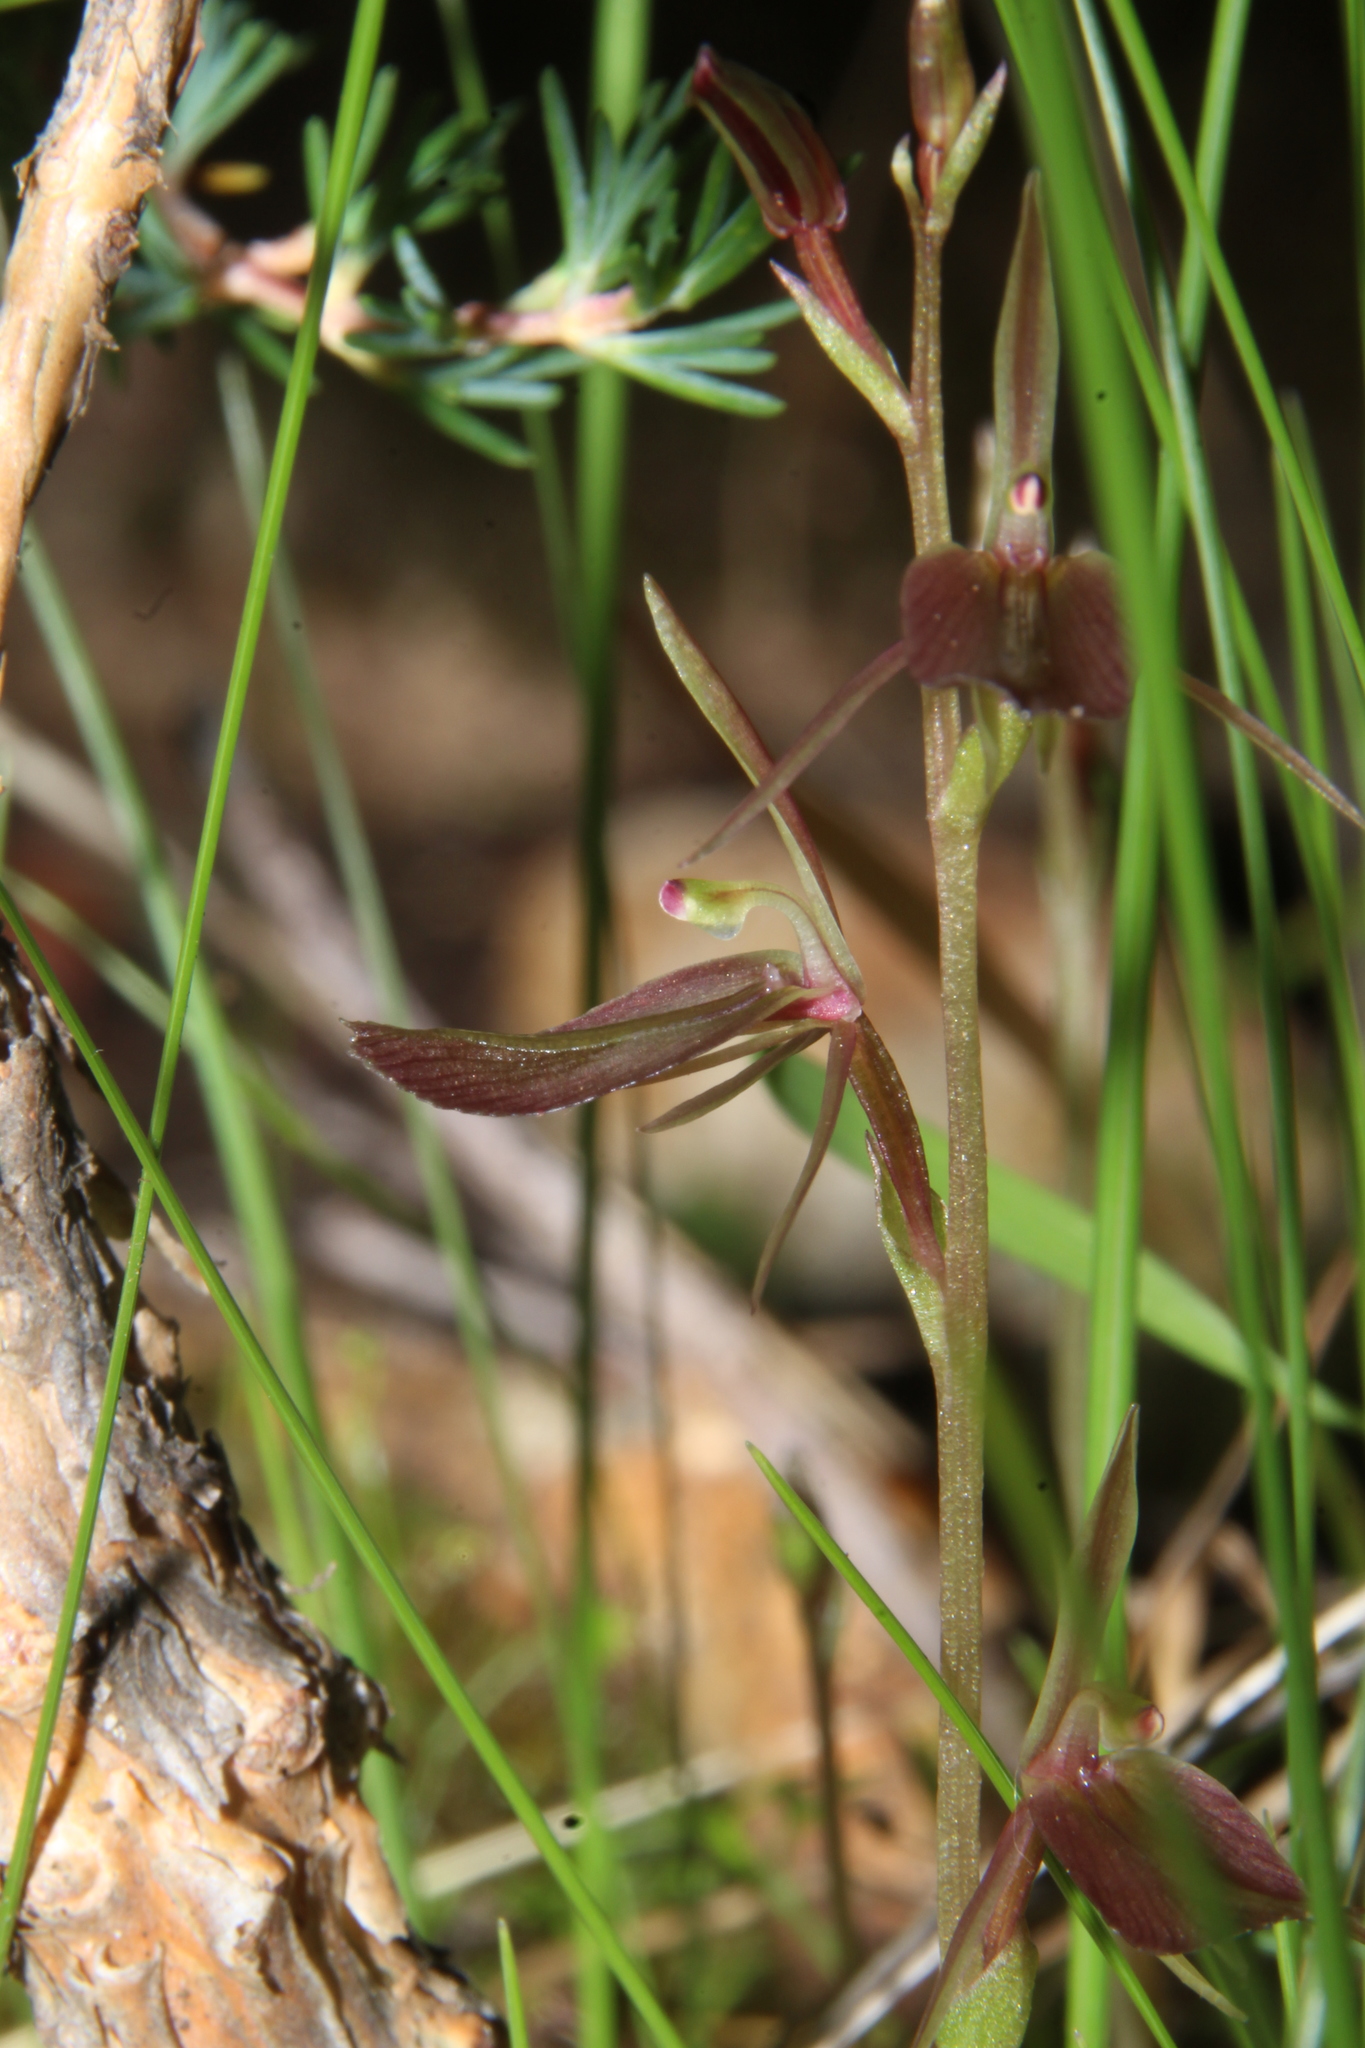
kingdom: Plantae
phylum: Tracheophyta
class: Liliopsida
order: Asparagales
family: Orchidaceae
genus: Cyrtostylis
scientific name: Cyrtostylis robusta
